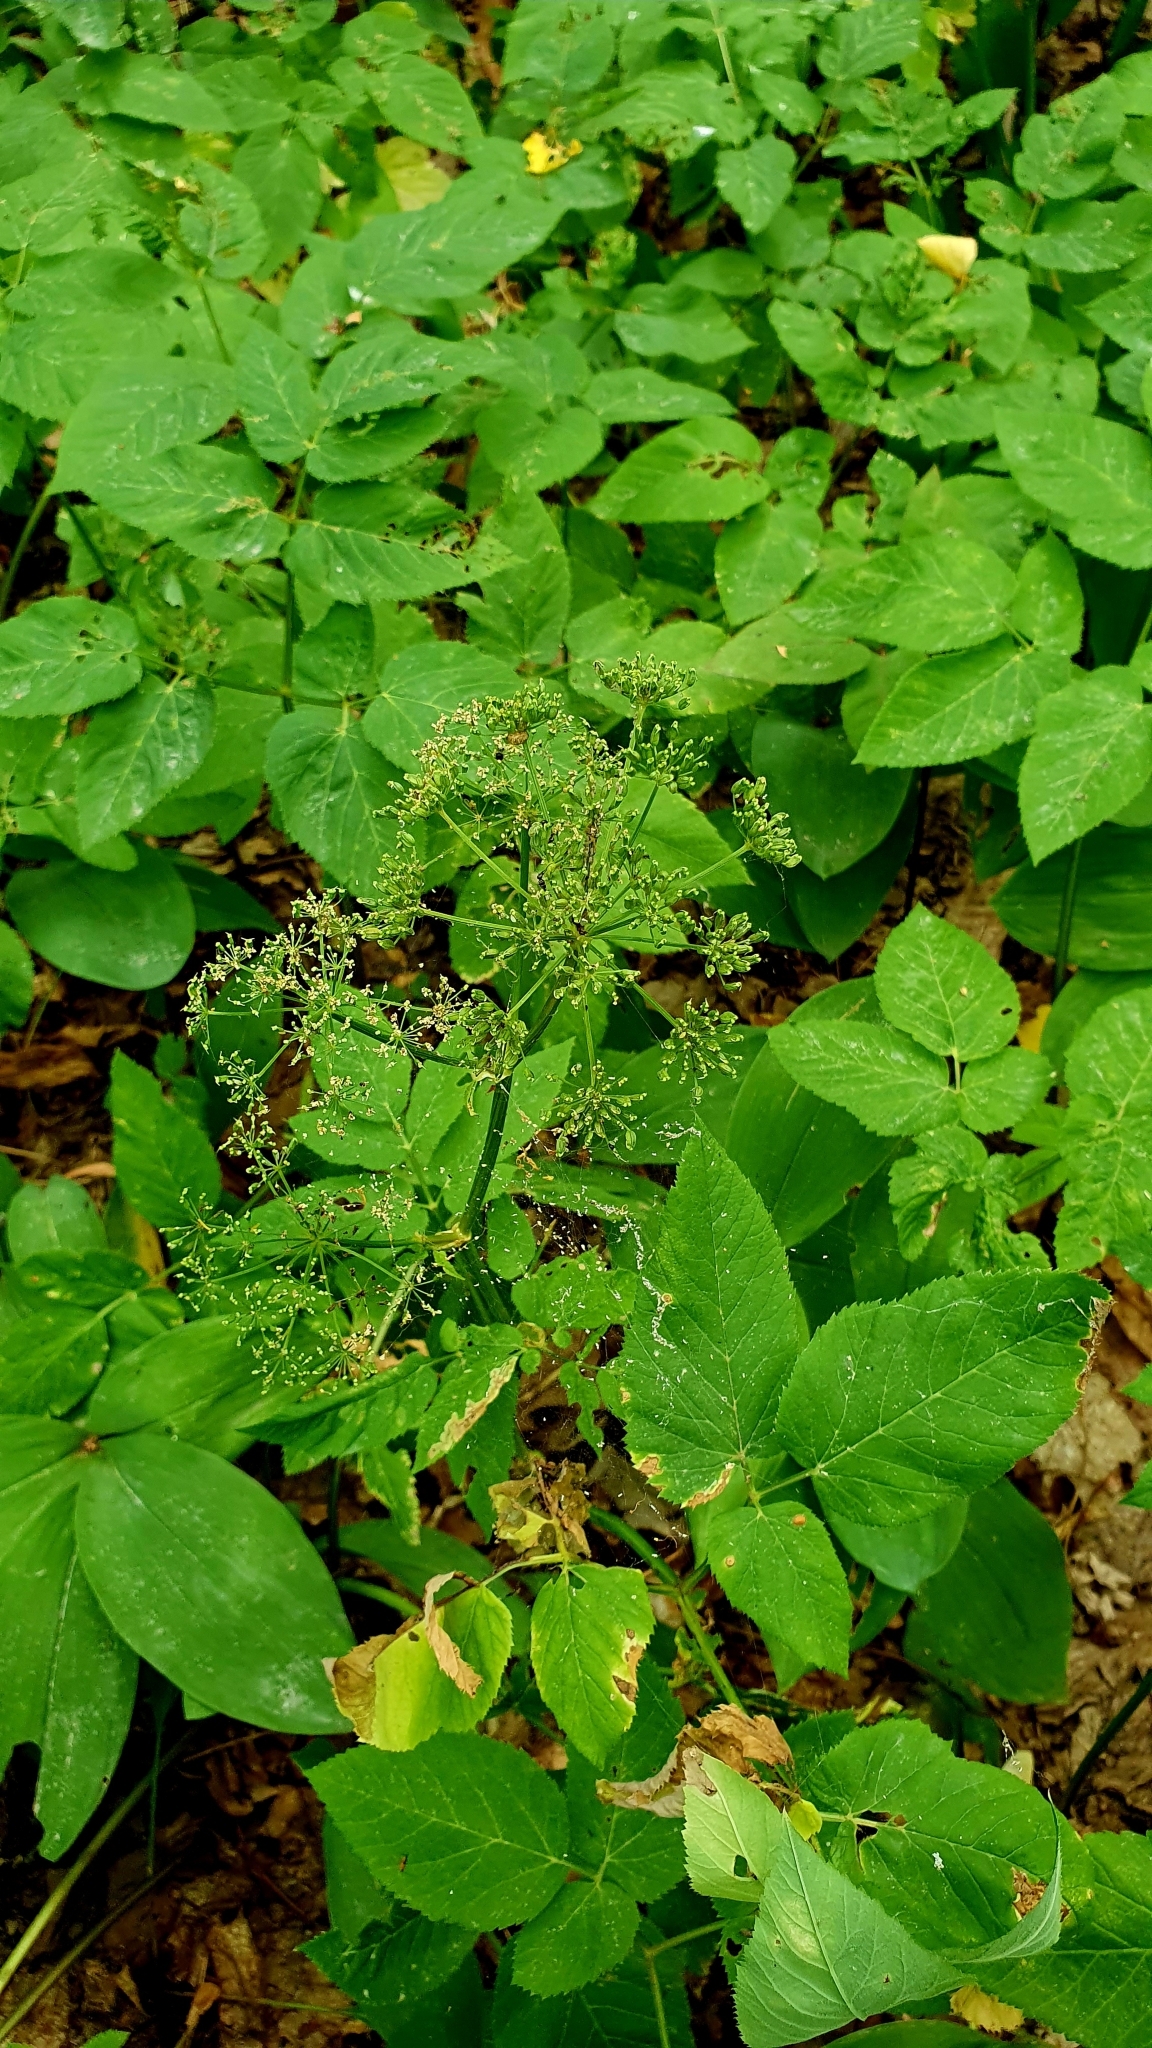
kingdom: Plantae
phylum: Tracheophyta
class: Magnoliopsida
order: Apiales
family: Apiaceae
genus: Aegopodium
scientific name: Aegopodium podagraria
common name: Ground-elder
